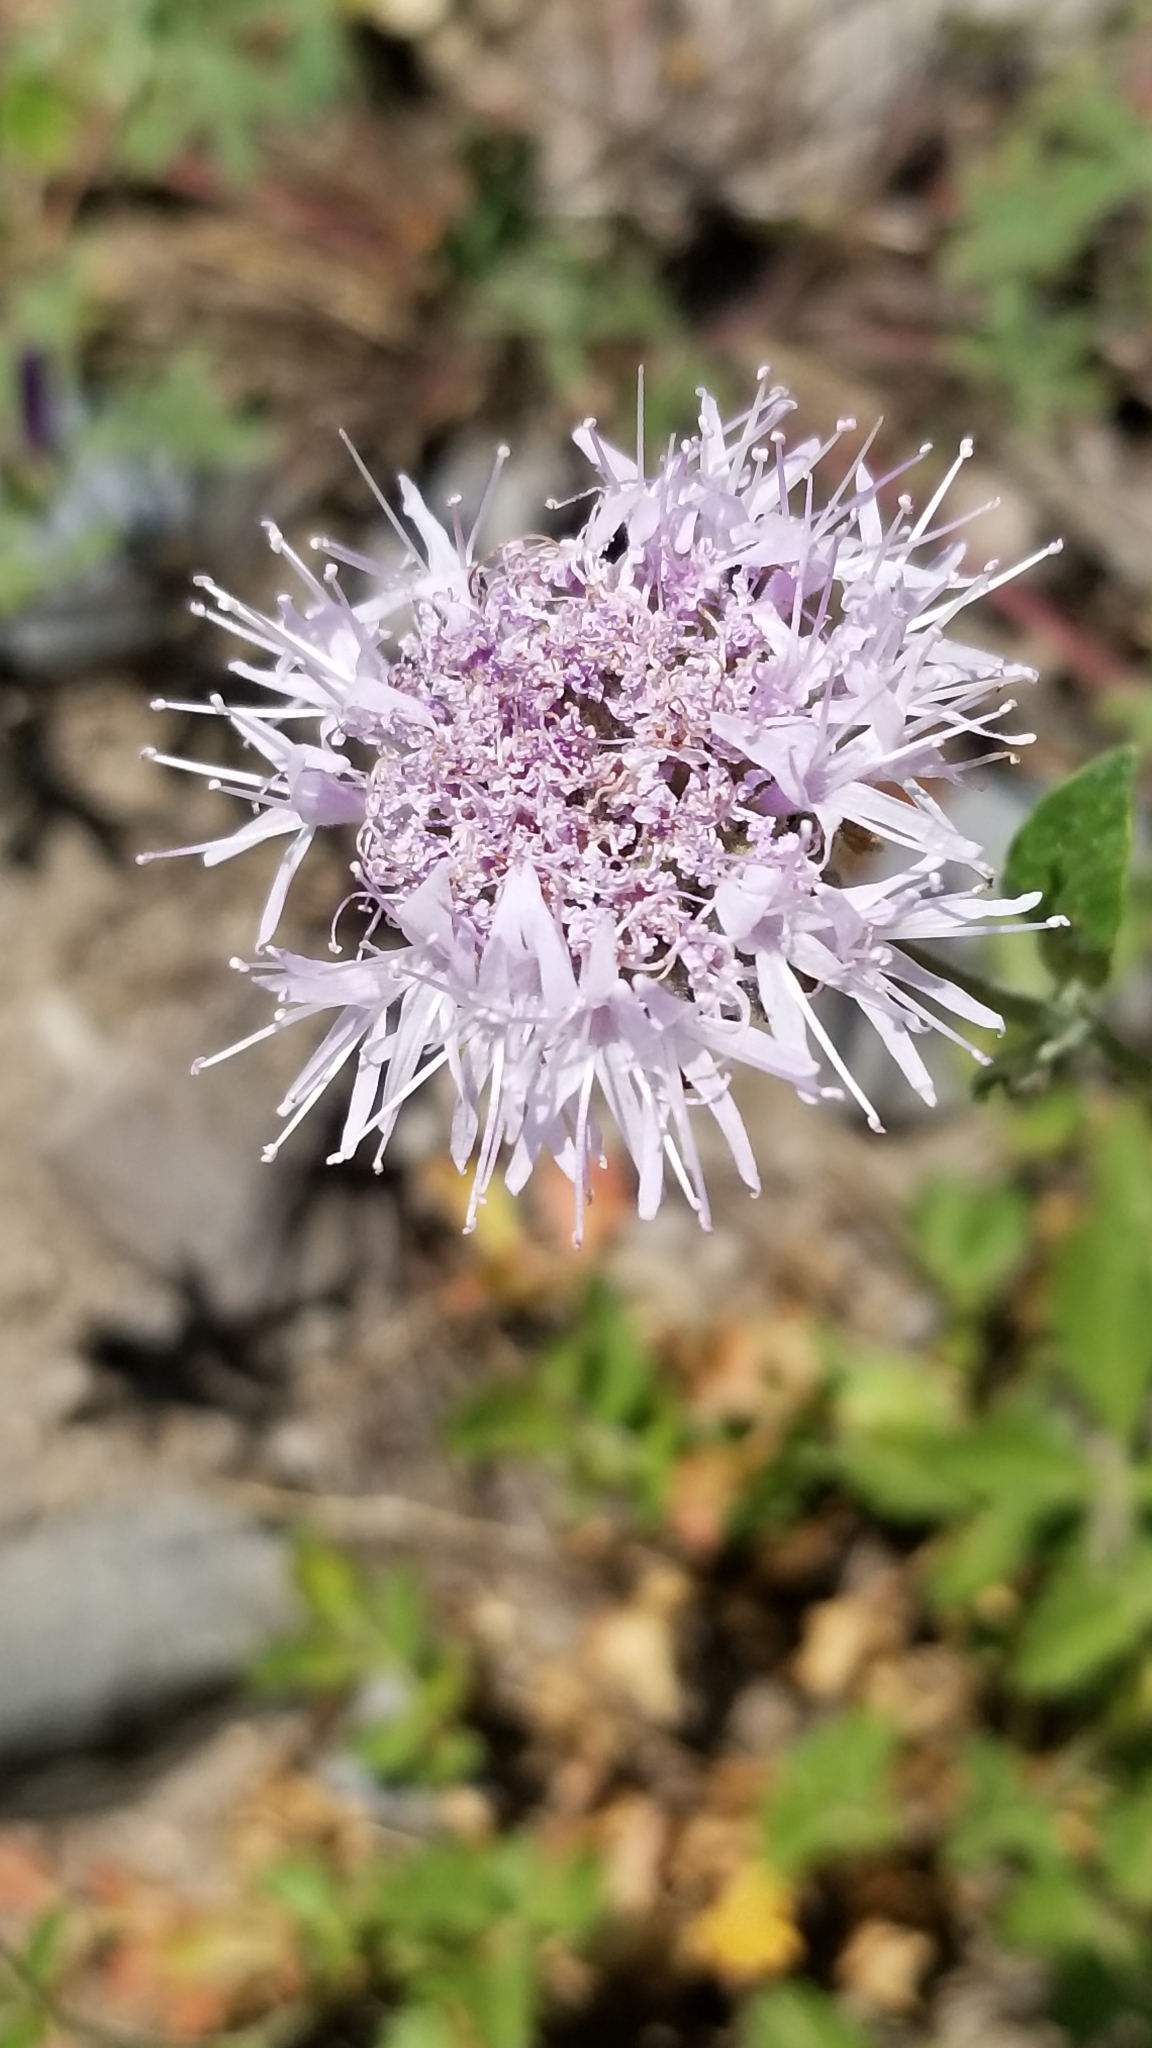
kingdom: Plantae
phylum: Tracheophyta
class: Magnoliopsida
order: Lamiales
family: Lamiaceae
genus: Monardella
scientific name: Monardella odoratissima
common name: Pacific monardella
